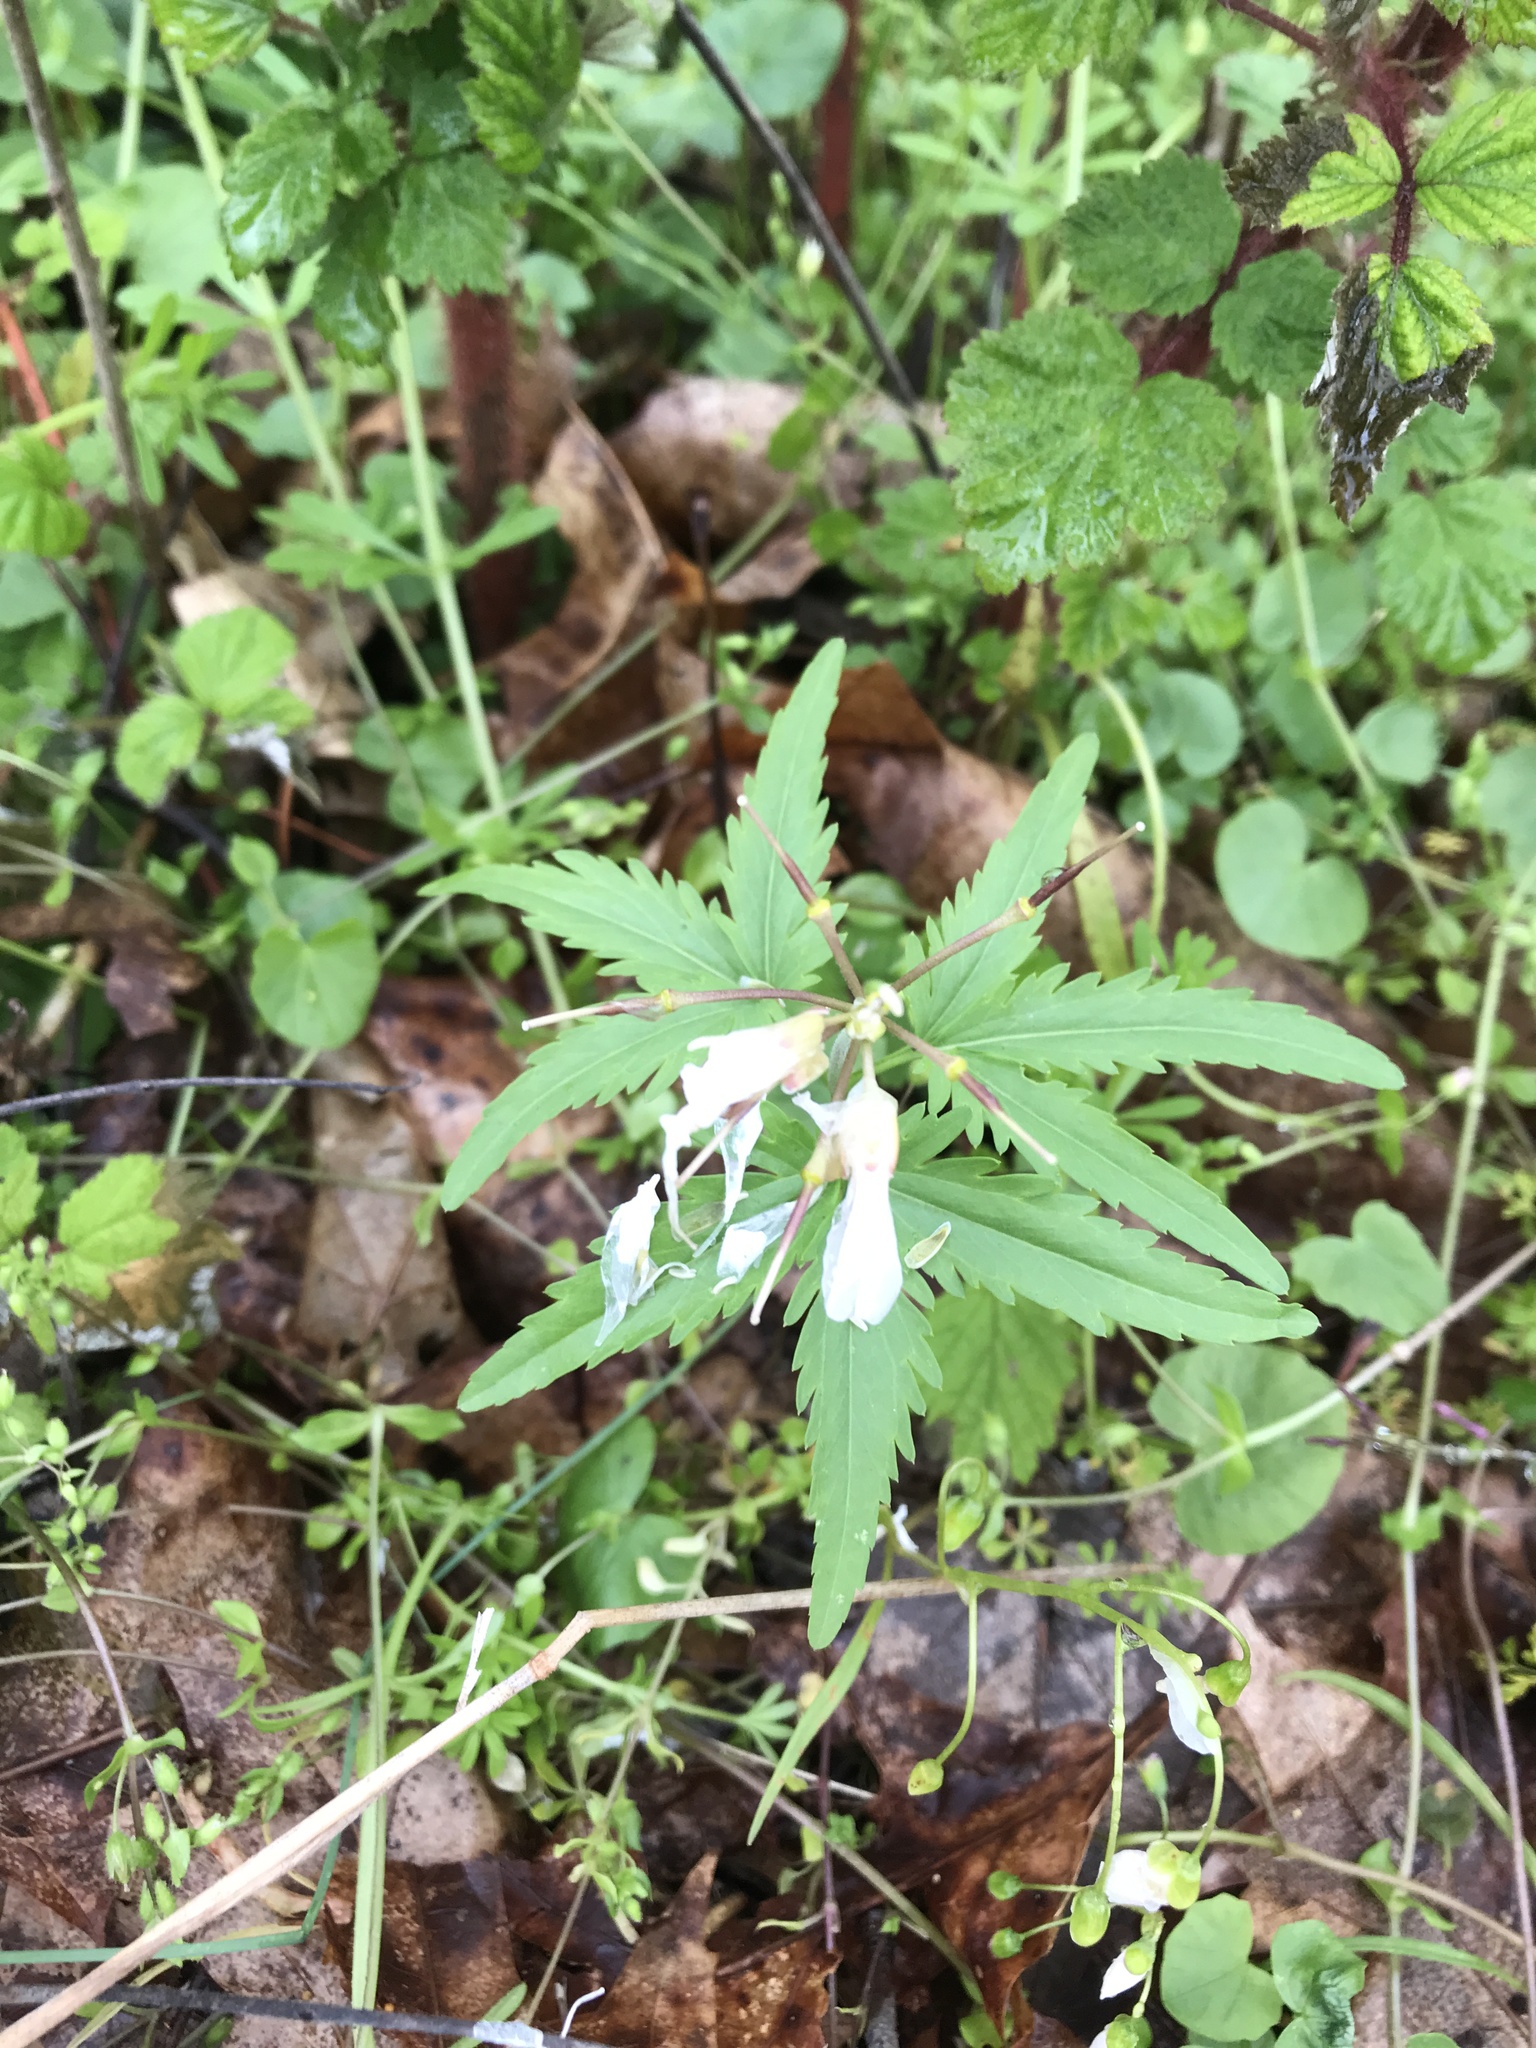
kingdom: Plantae
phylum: Tracheophyta
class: Magnoliopsida
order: Brassicales
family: Brassicaceae
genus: Cardamine
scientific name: Cardamine concatenata
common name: Cut-leaf toothcup
